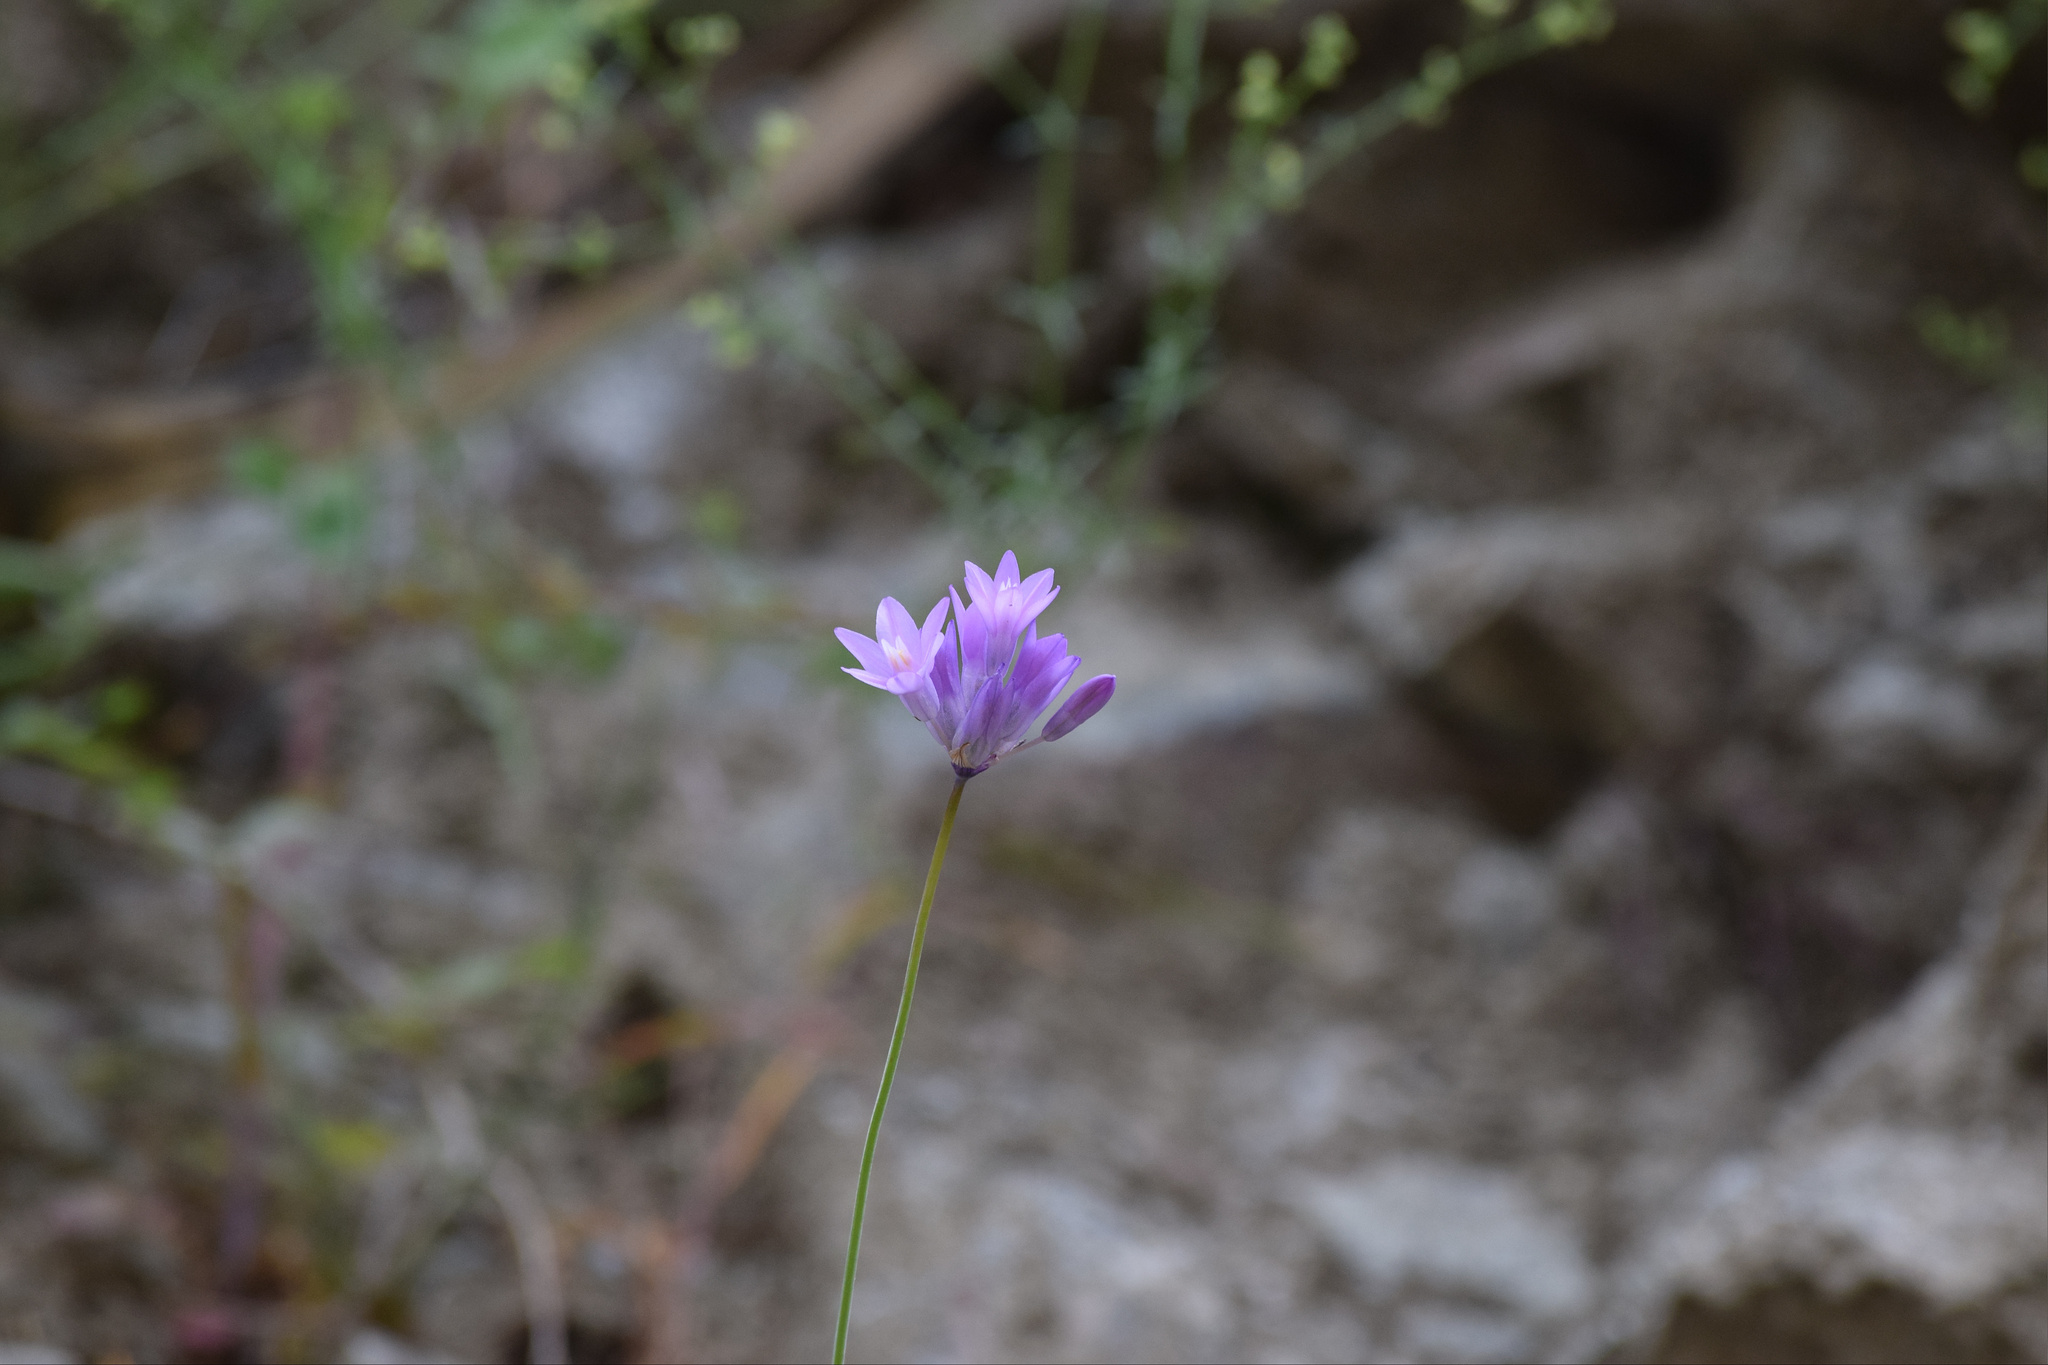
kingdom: Plantae
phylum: Tracheophyta
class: Liliopsida
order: Asparagales
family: Asparagaceae
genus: Dipterostemon
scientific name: Dipterostemon capitatus
